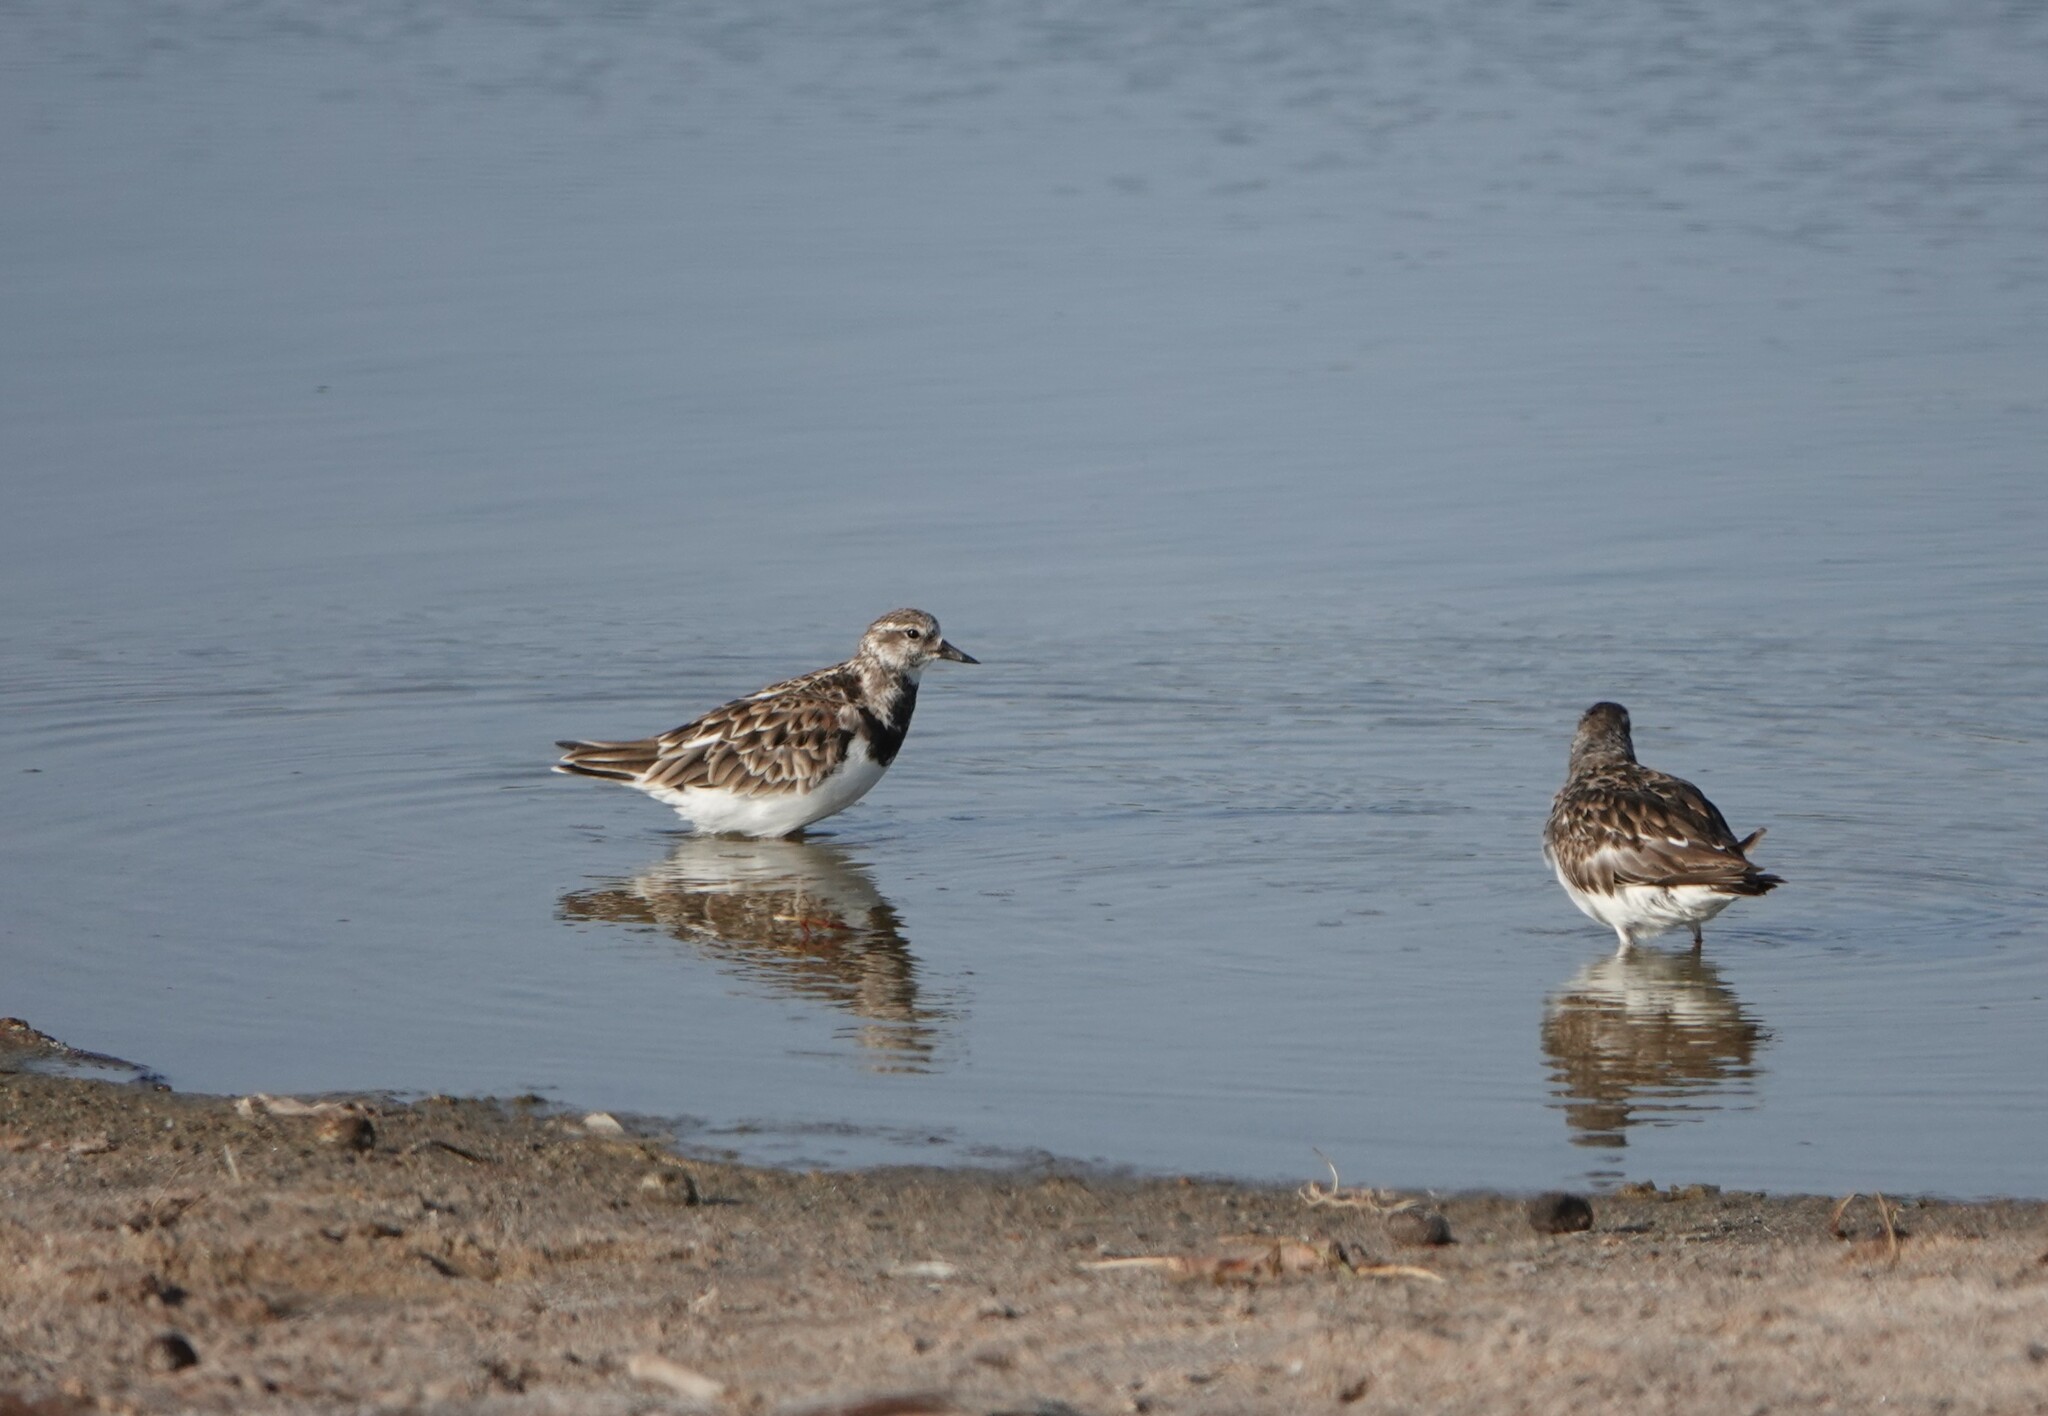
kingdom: Animalia
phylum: Chordata
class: Aves
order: Charadriiformes
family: Scolopacidae
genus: Arenaria
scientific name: Arenaria interpres
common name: Ruddy turnstone
